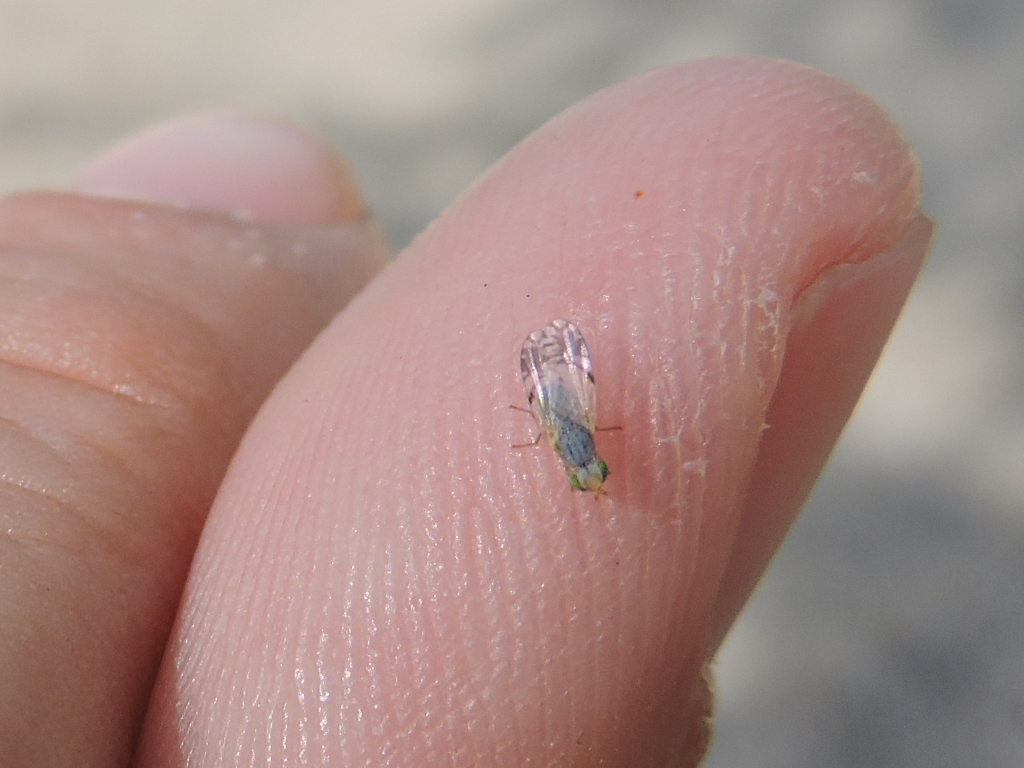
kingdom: Animalia
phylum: Arthropoda
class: Insecta
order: Diptera
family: Tephritidae
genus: Trupanea
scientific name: Trupanea vicina
